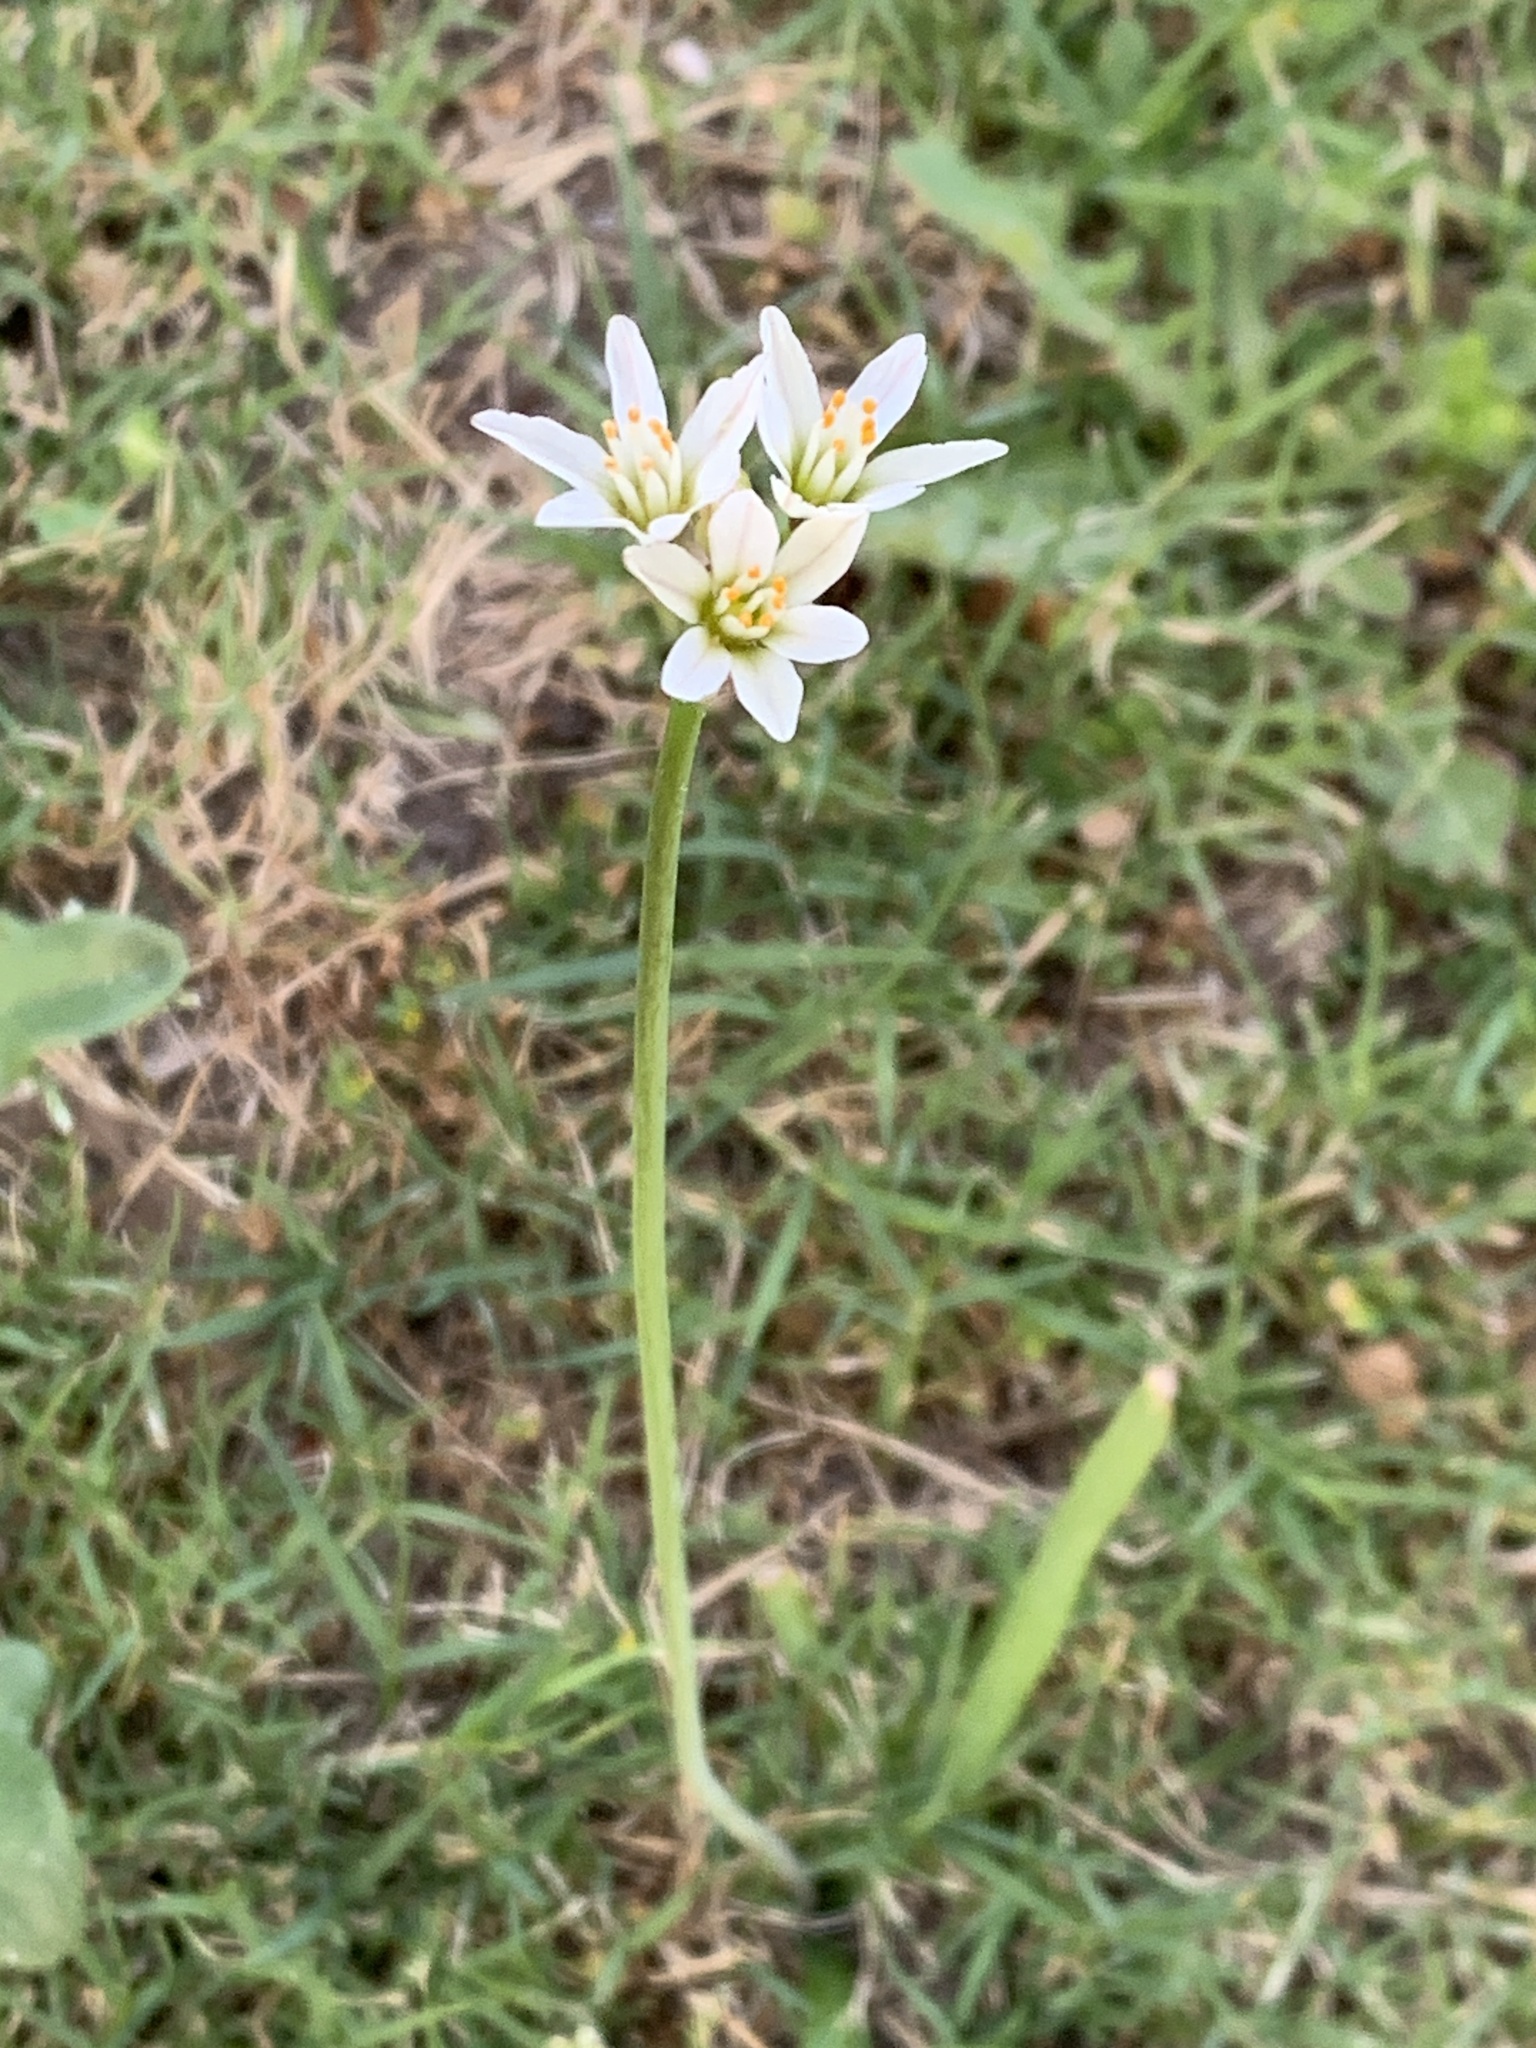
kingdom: Plantae
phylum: Tracheophyta
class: Liliopsida
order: Asparagales
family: Amaryllidaceae
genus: Nothoscordum
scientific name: Nothoscordum gracile
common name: Slender false garlic
